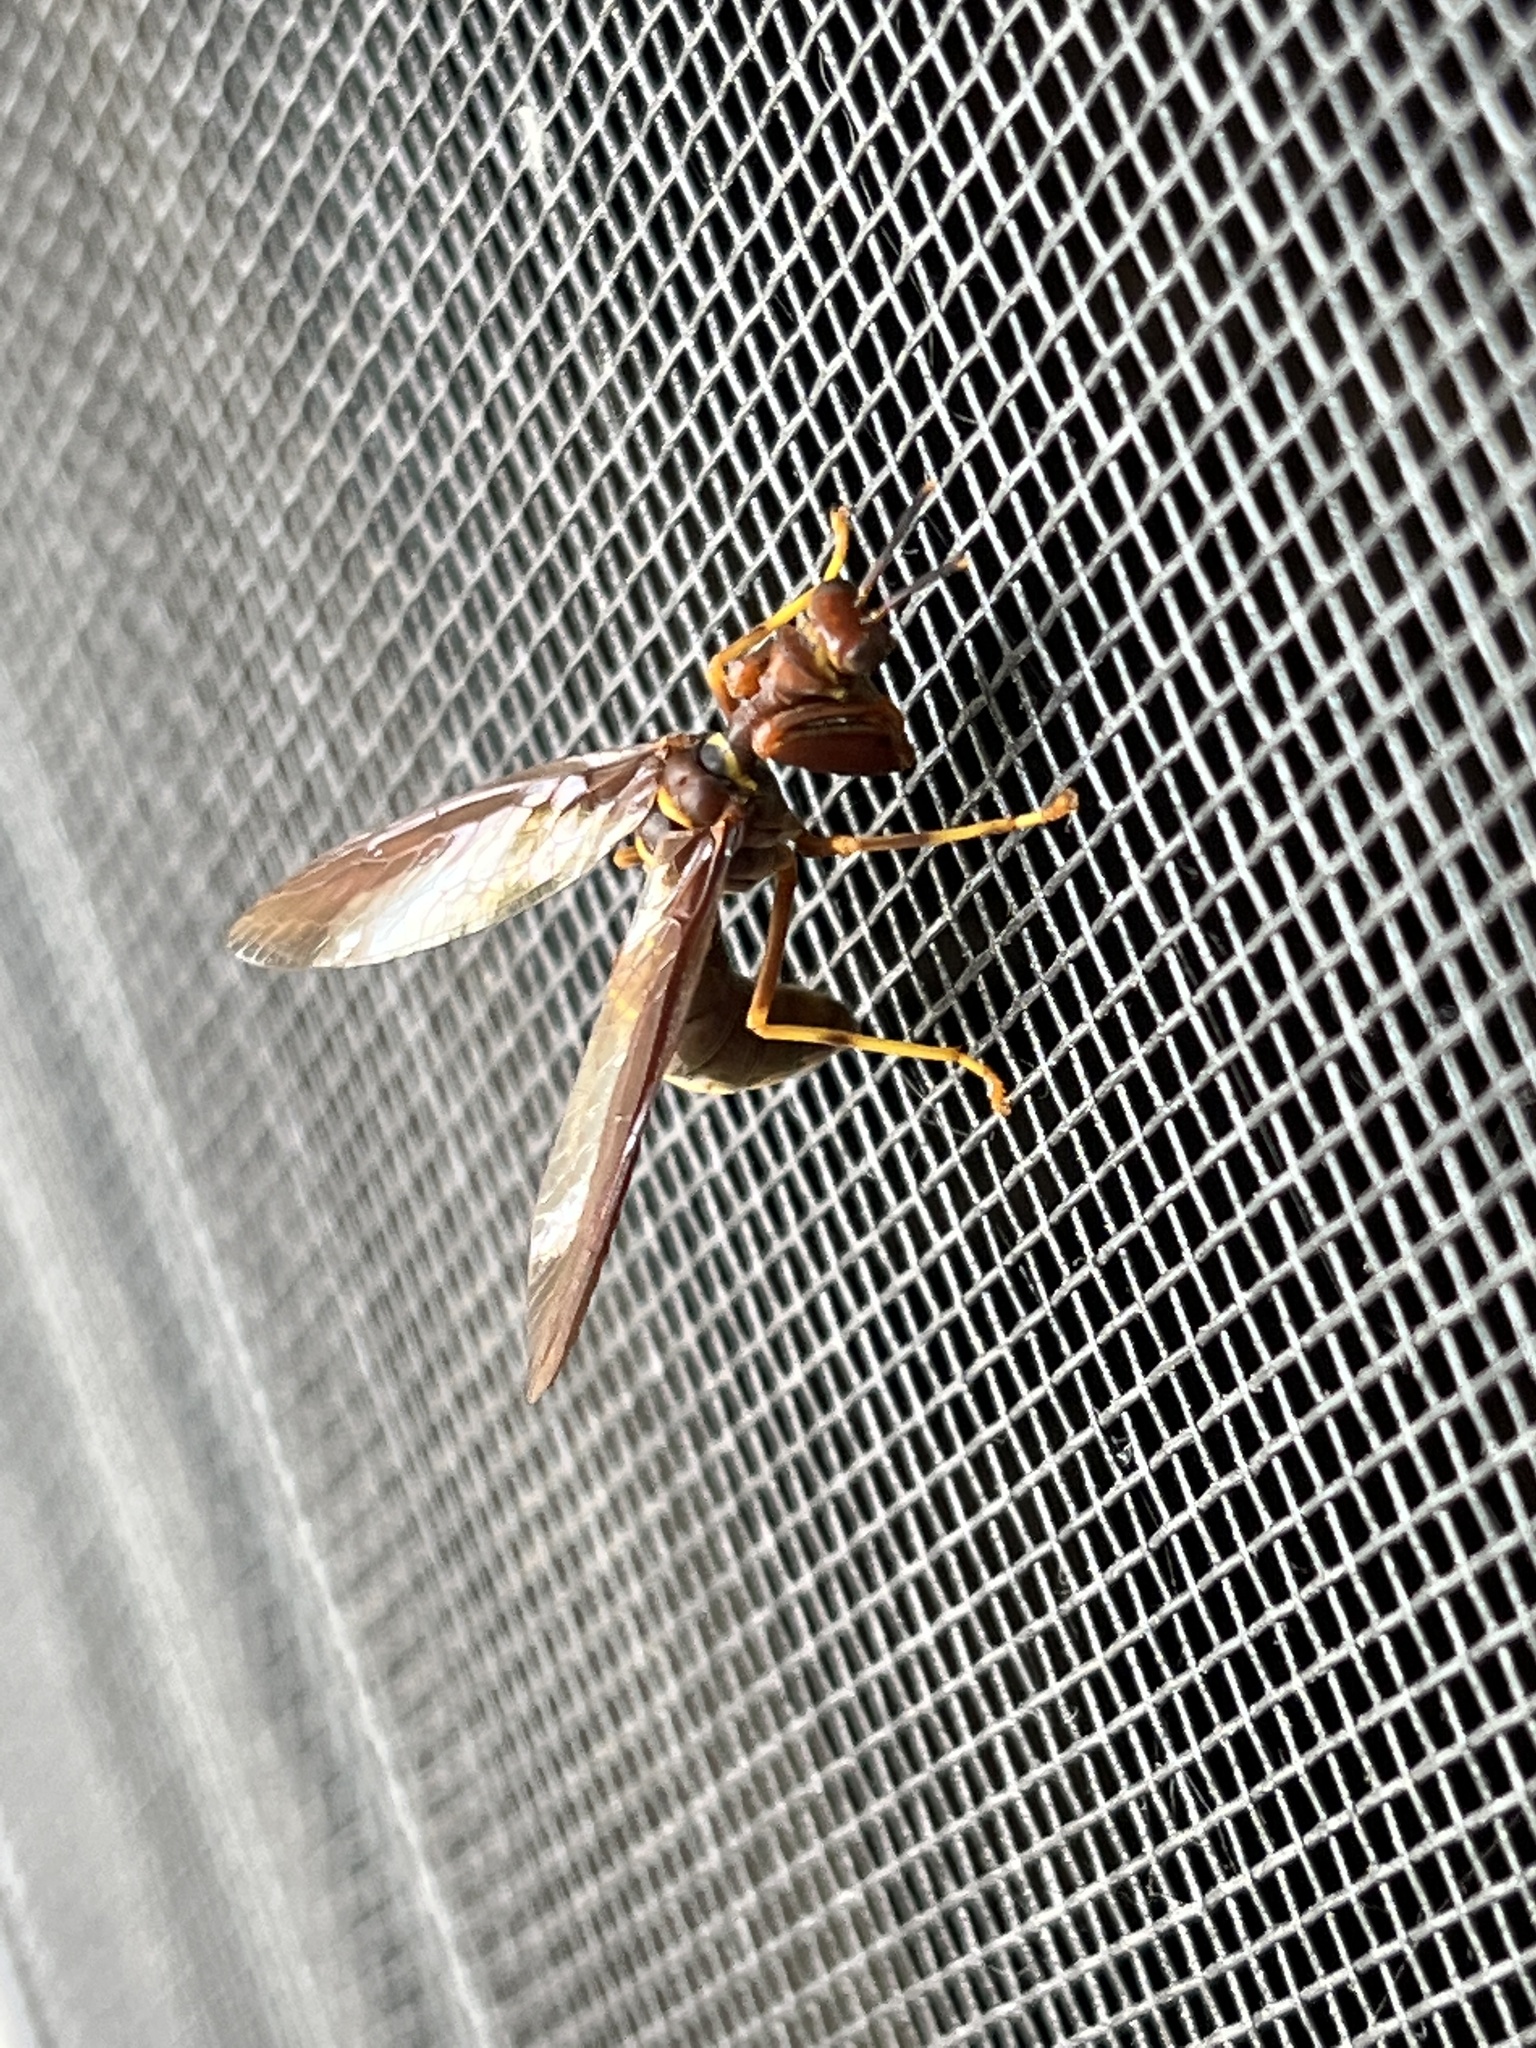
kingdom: Animalia
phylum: Arthropoda
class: Insecta
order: Neuroptera
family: Mantispidae
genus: Climaciella
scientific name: Climaciella brunnea
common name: Brown wasp mantidfly
